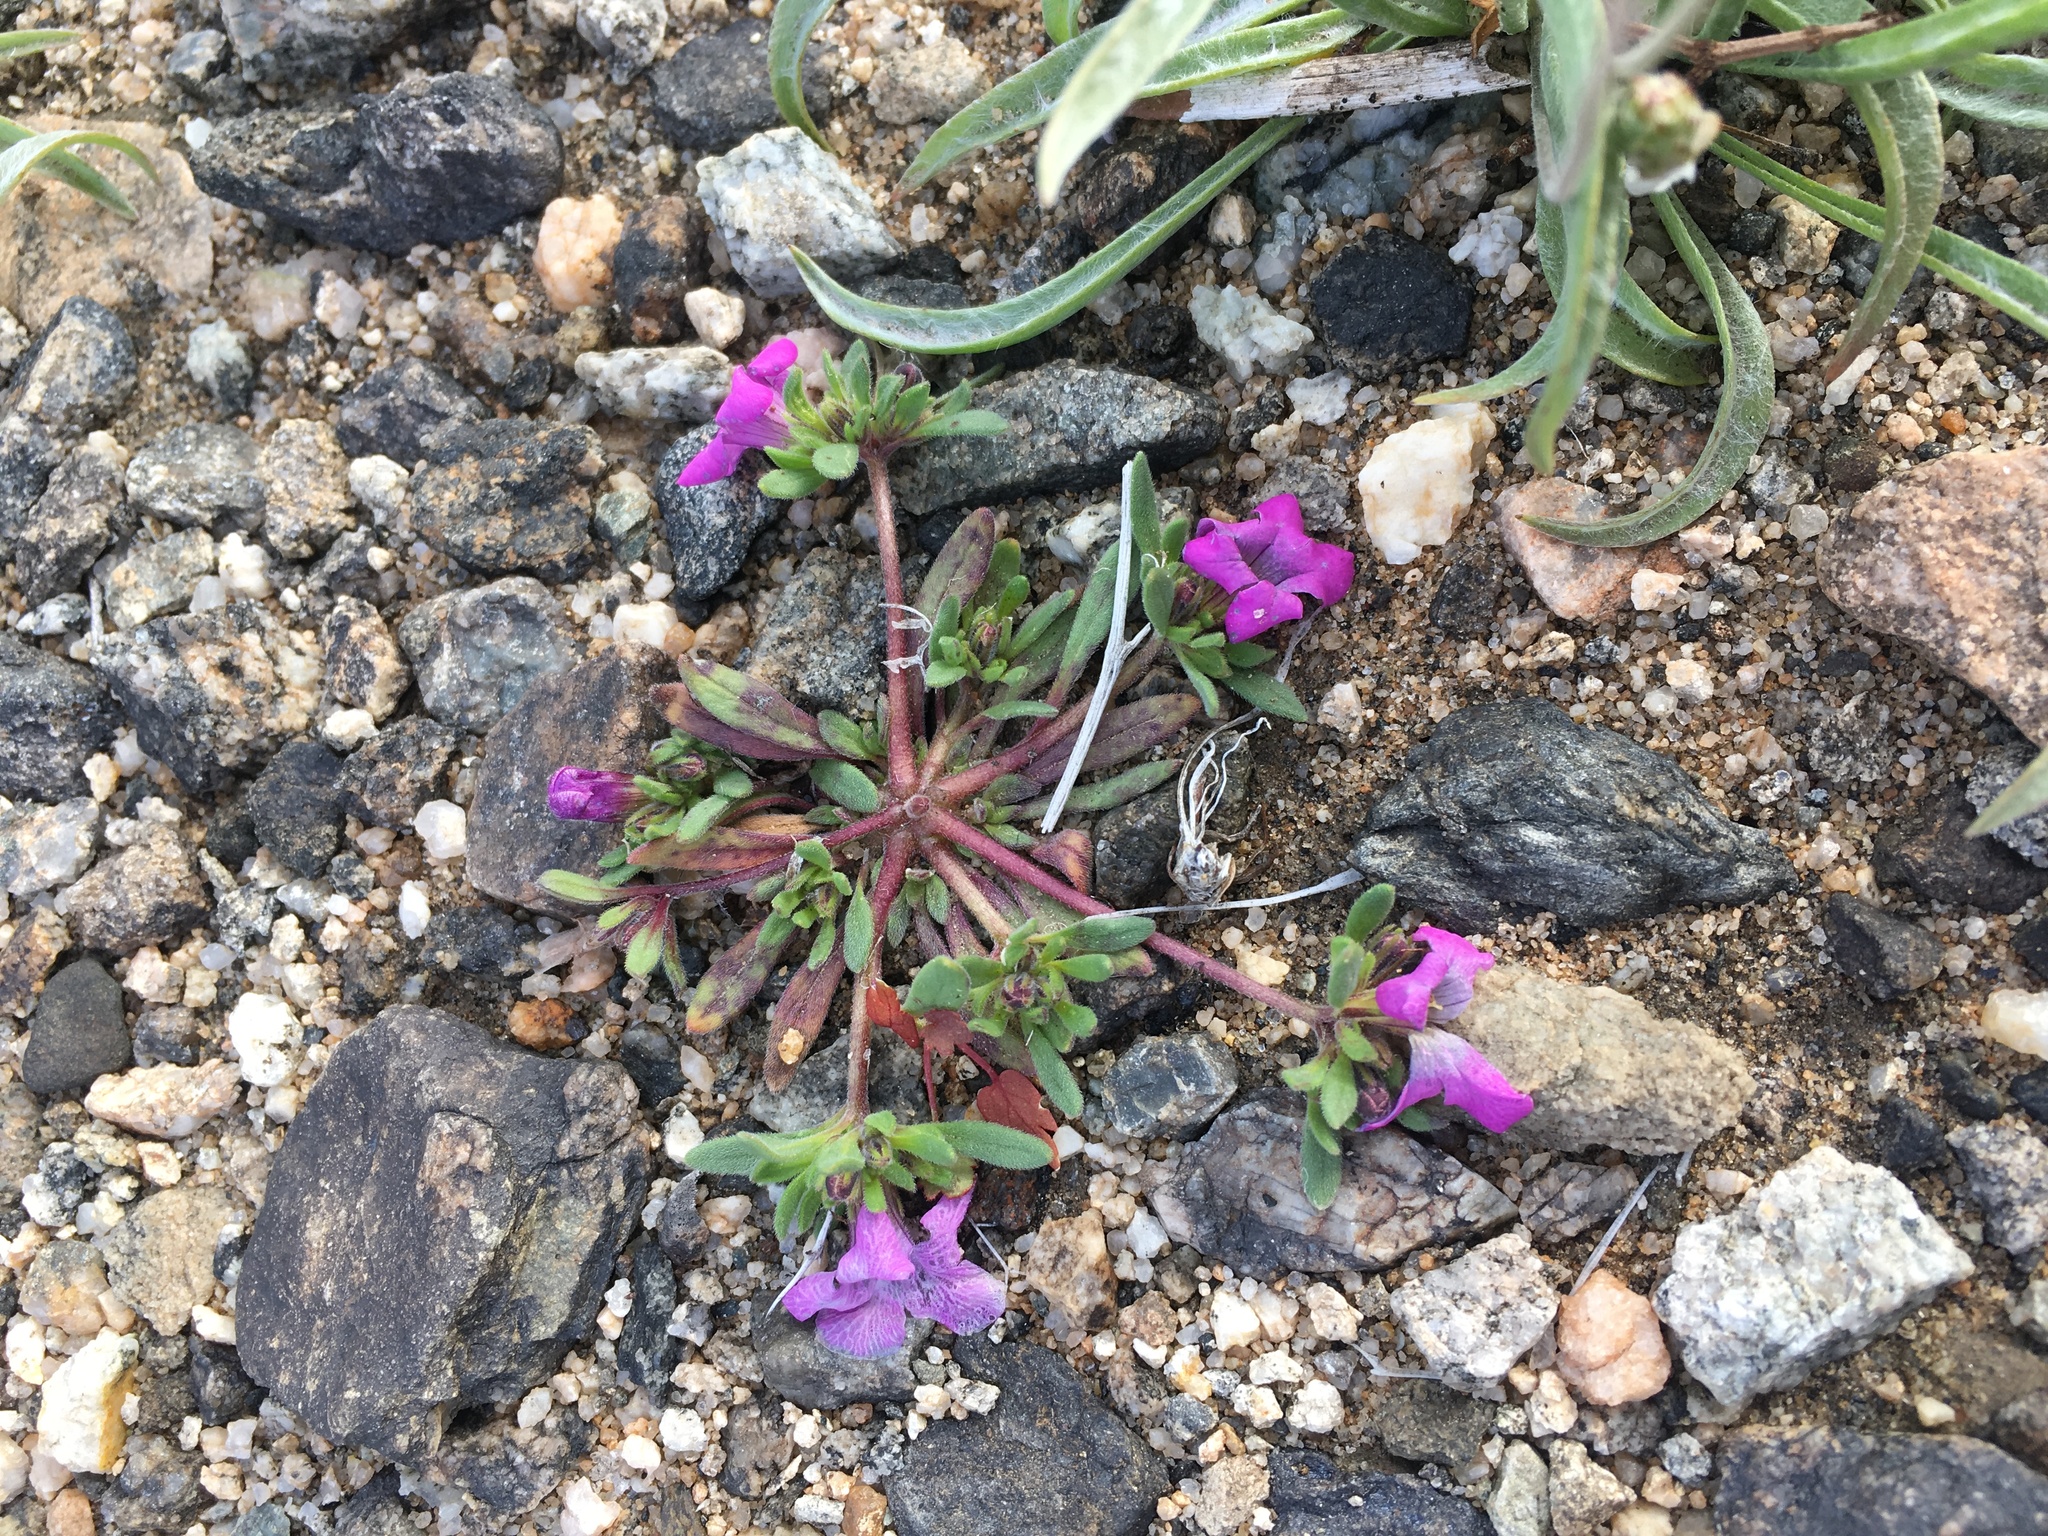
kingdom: Plantae
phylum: Tracheophyta
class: Magnoliopsida
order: Boraginales
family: Namaceae
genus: Nama
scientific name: Nama demissa
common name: Leafy nama
